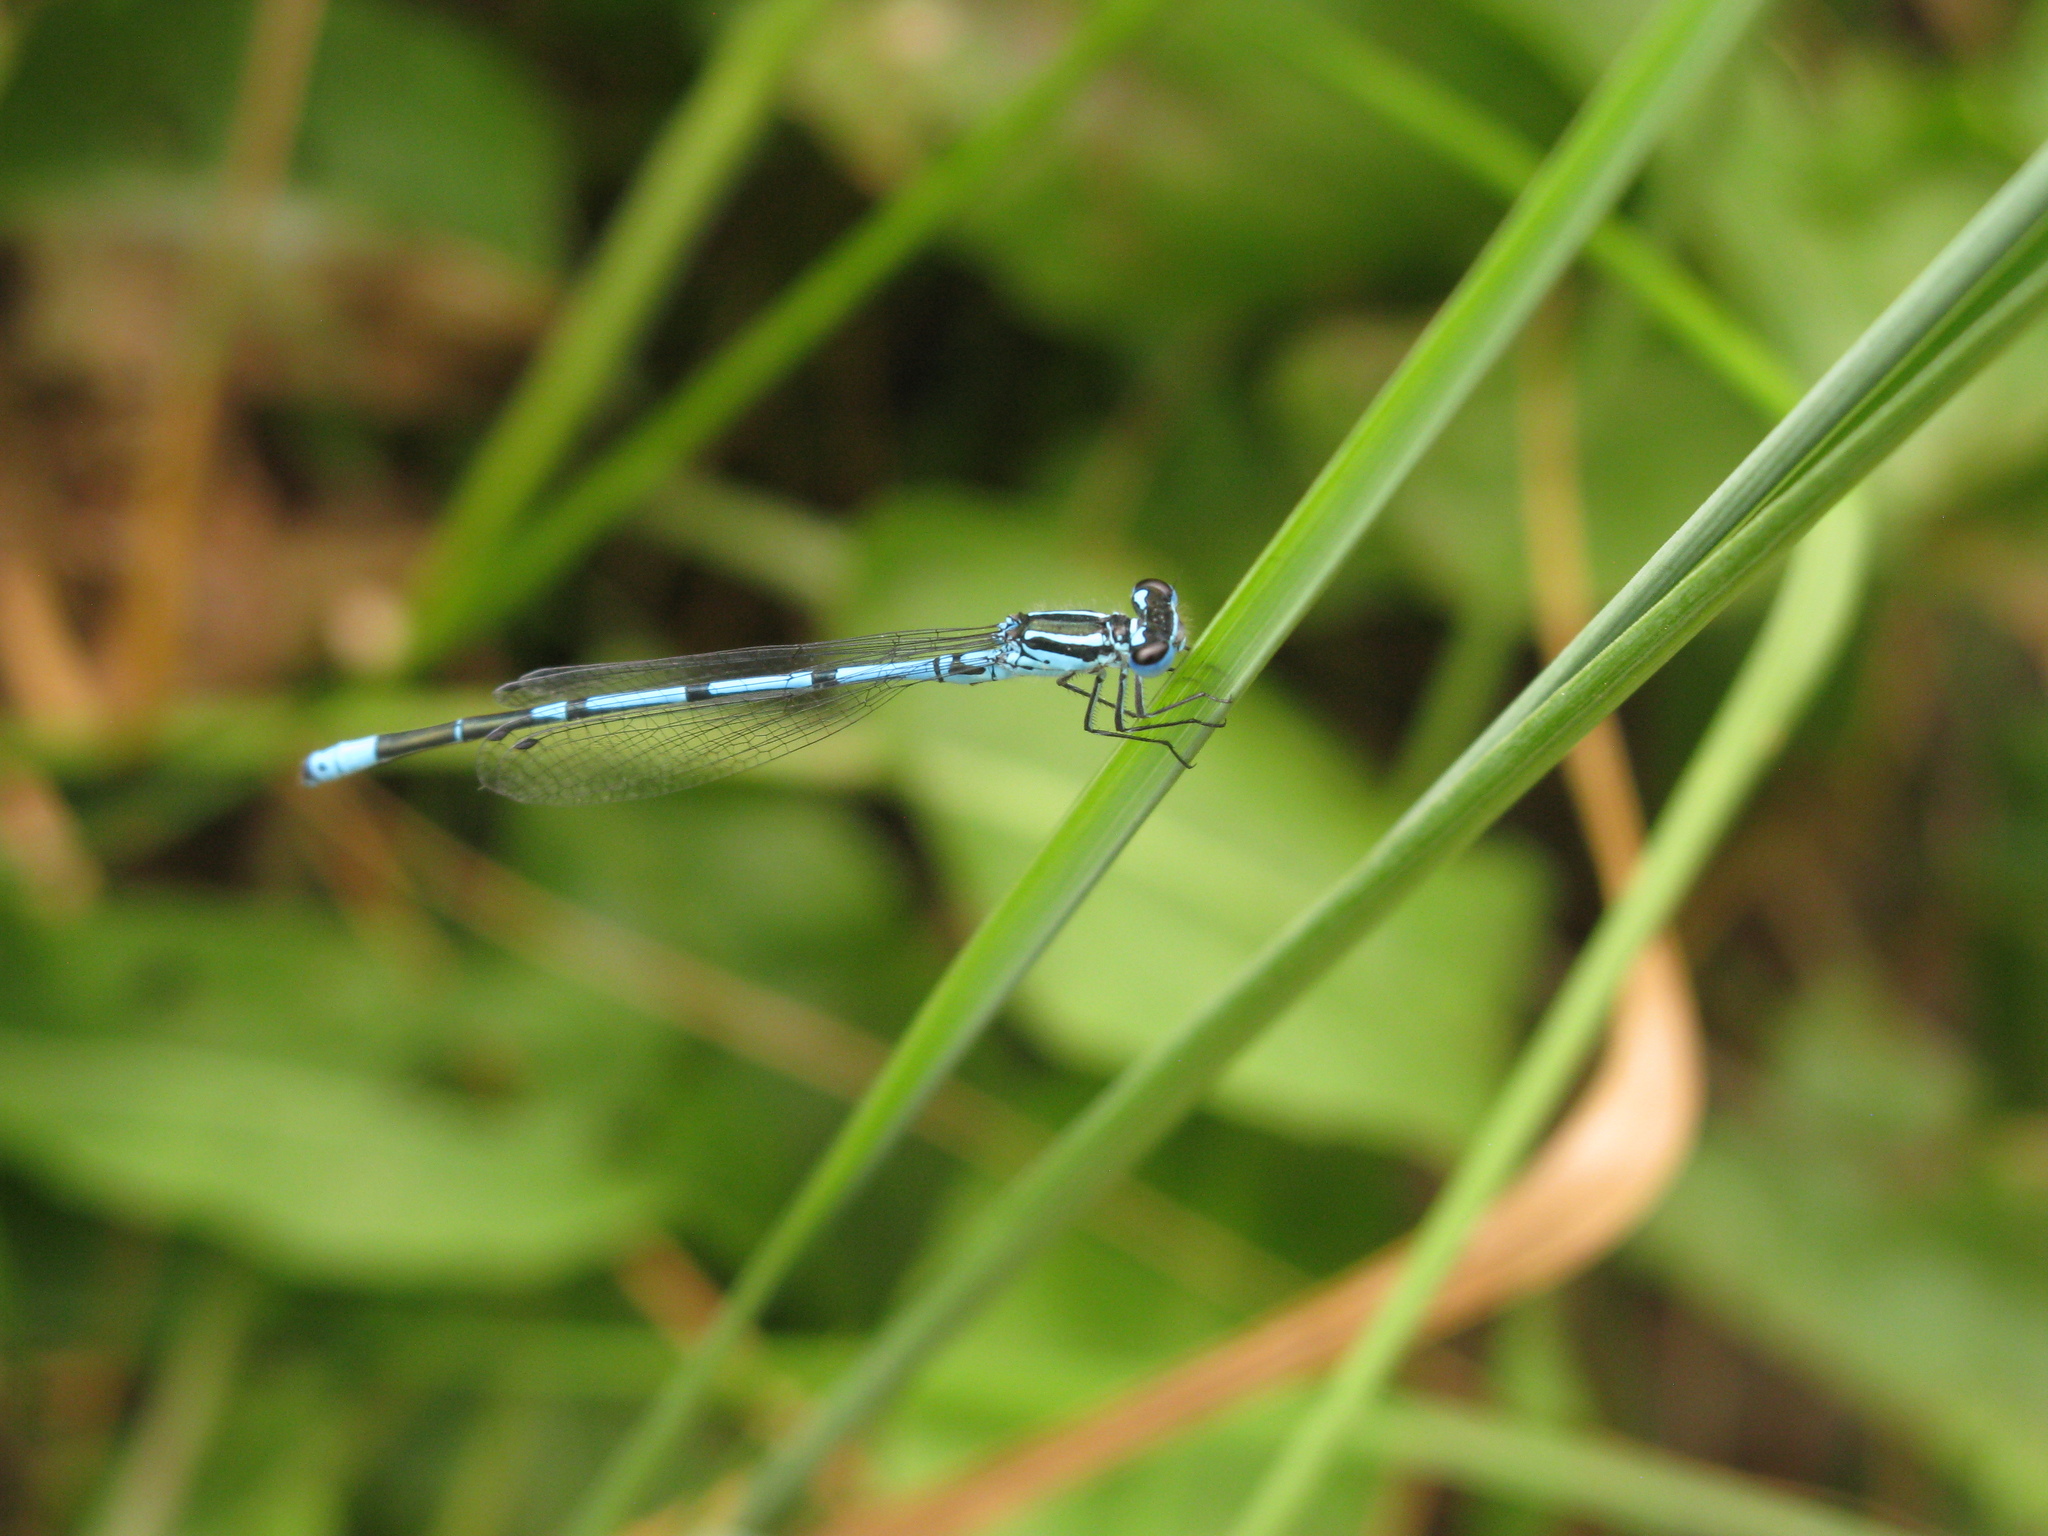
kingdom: Animalia
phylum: Arthropoda
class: Insecta
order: Odonata
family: Coenagrionidae
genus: Coenagrion
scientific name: Coenagrion puella
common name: Azure damselfly
